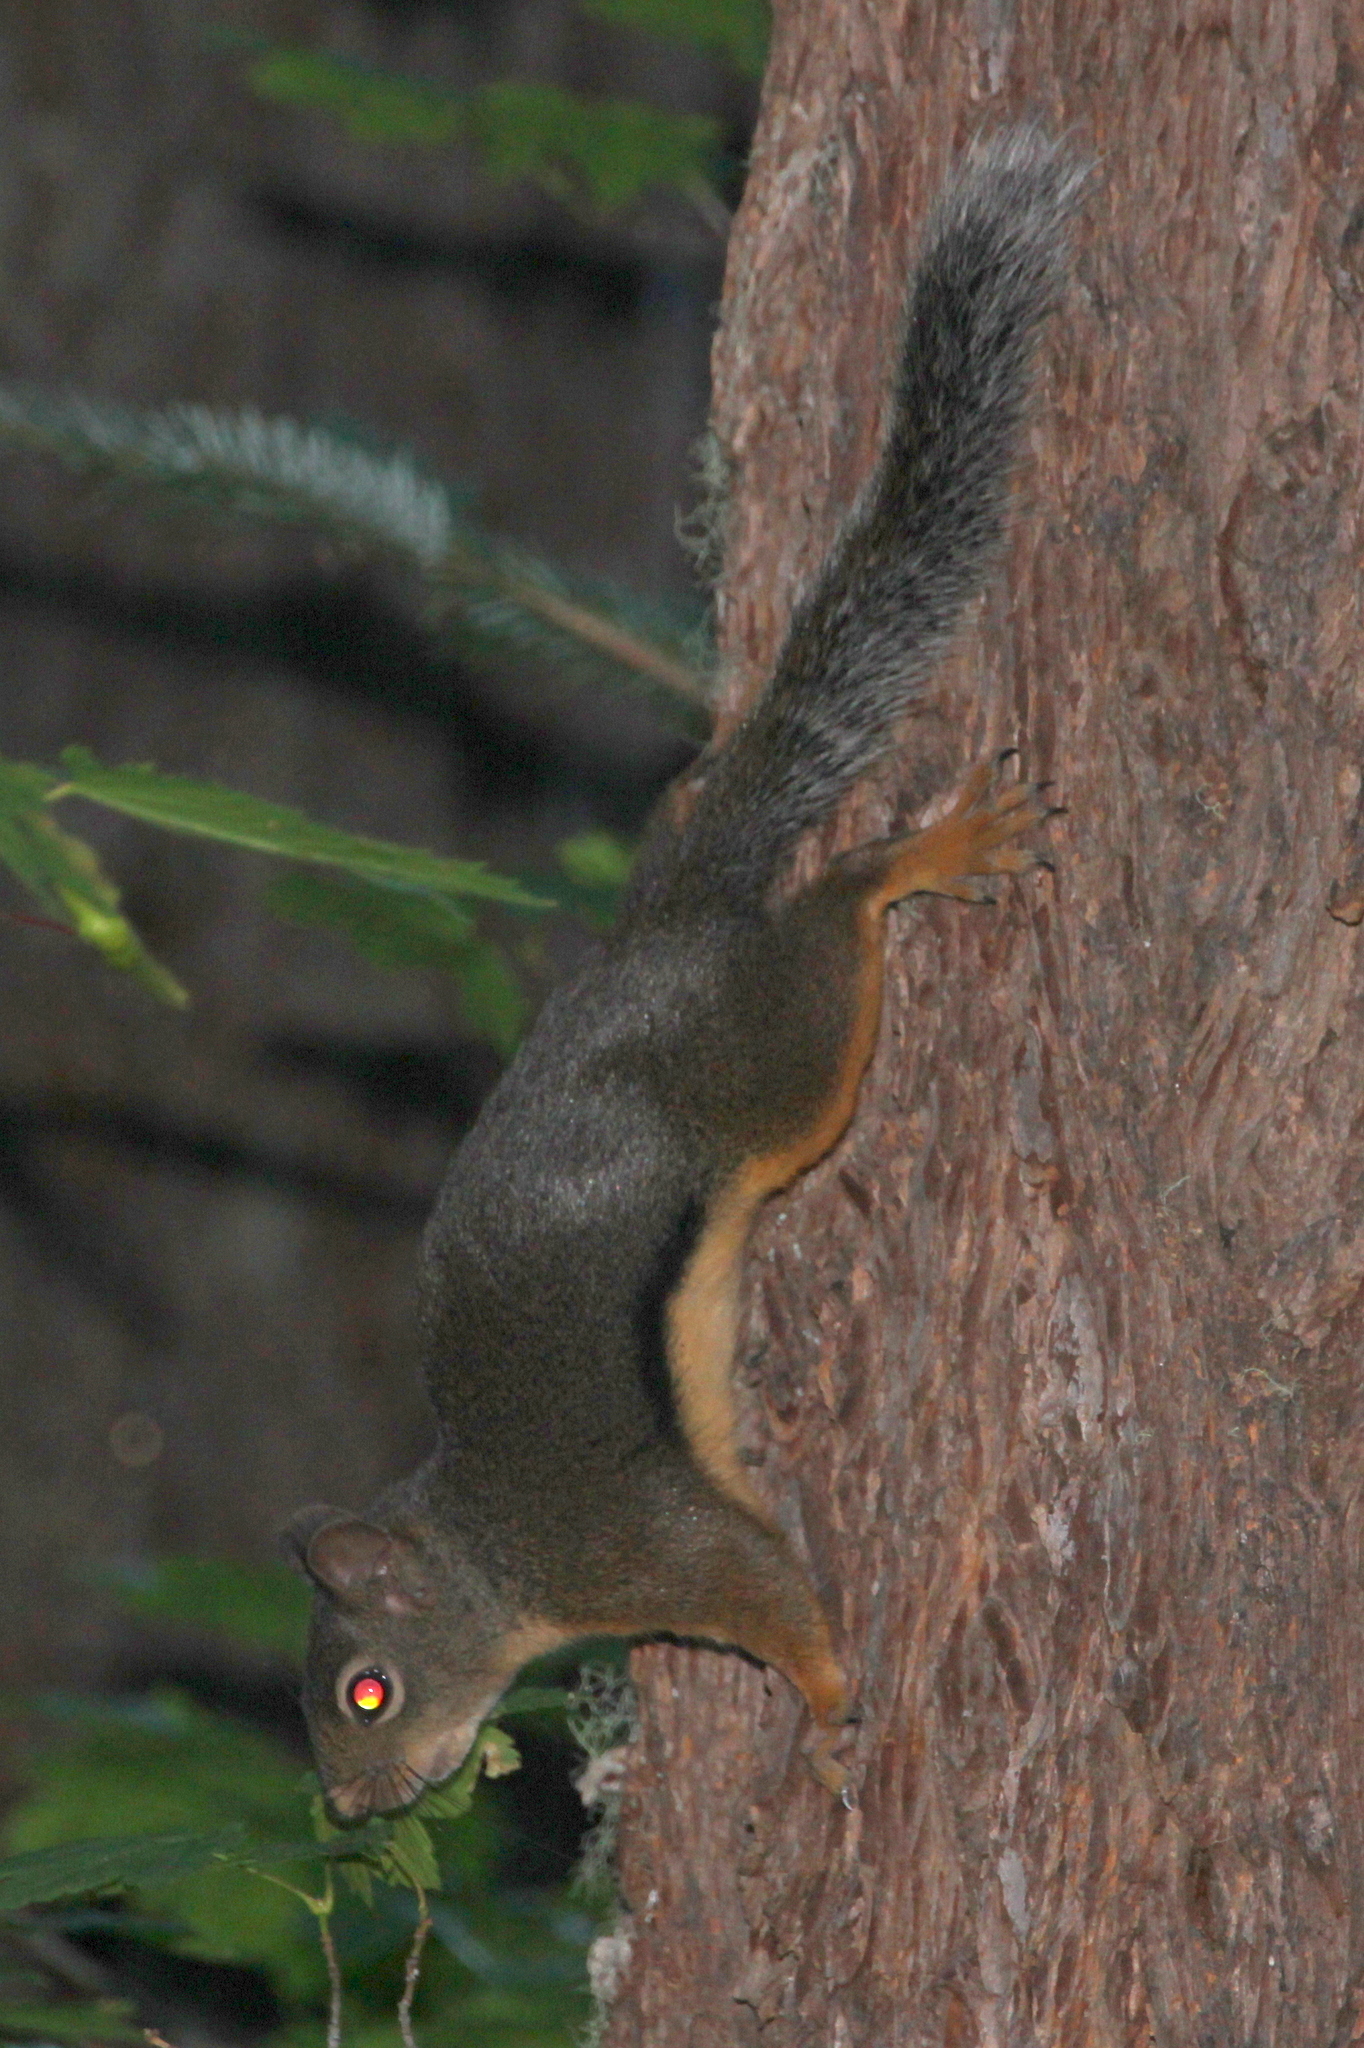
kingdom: Animalia
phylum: Chordata
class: Mammalia
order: Rodentia
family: Sciuridae
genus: Tamiasciurus
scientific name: Tamiasciurus douglasii
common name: Douglas's squirrel
